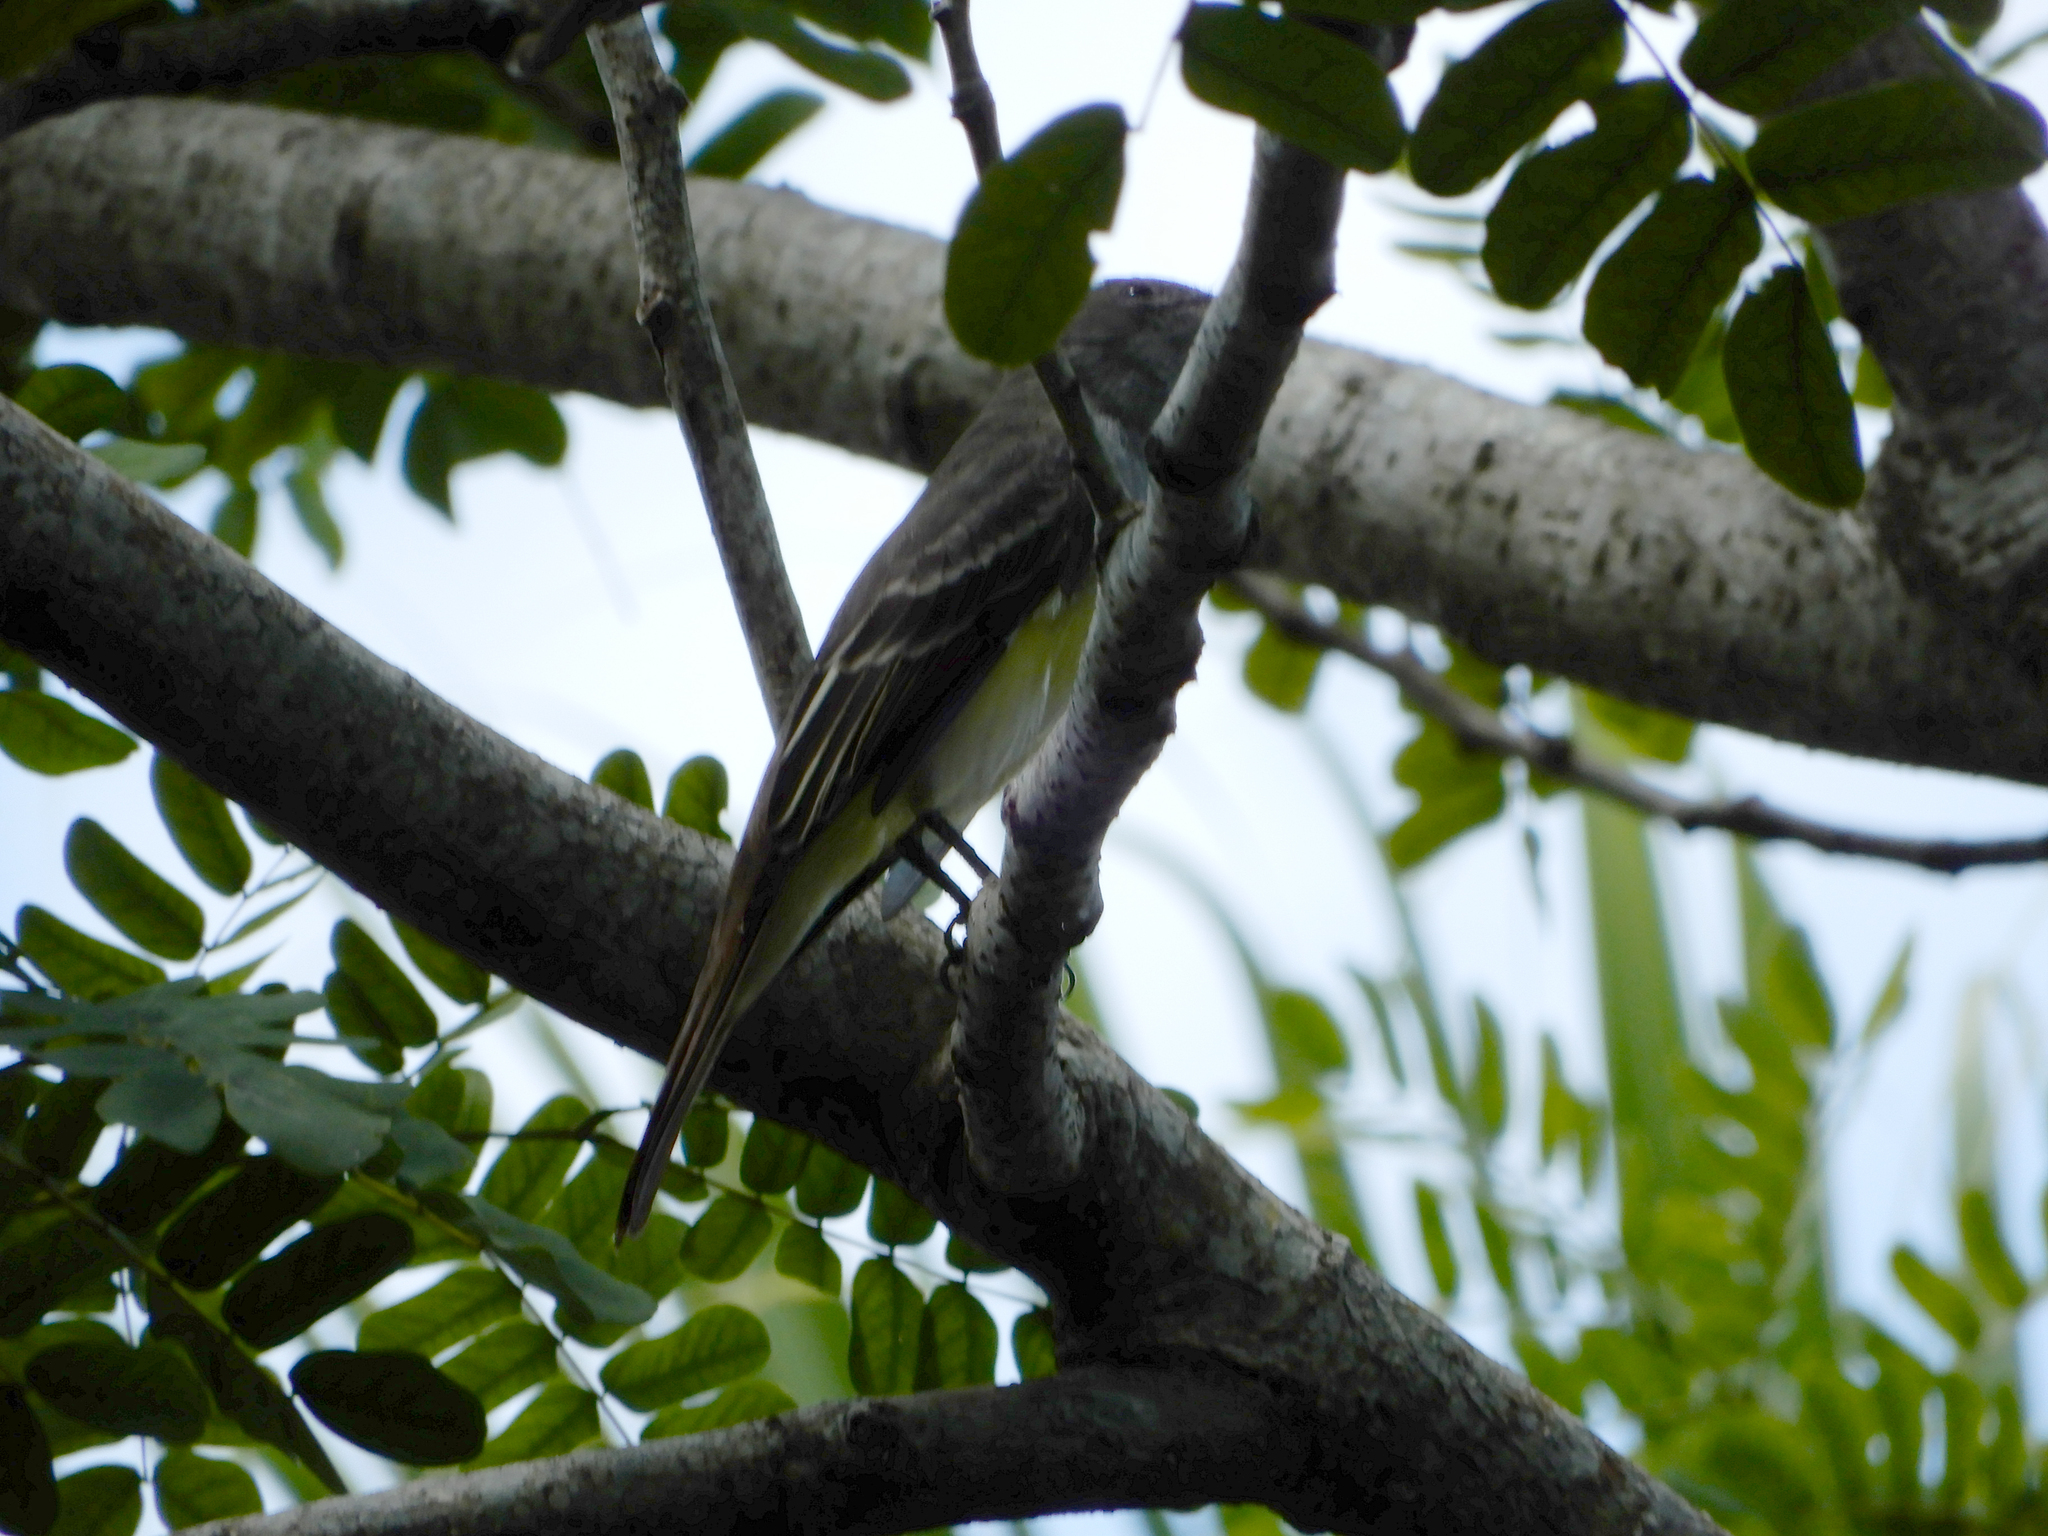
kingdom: Animalia
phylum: Chordata
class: Aves
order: Passeriformes
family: Tyrannidae
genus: Myiarchus
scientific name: Myiarchus crinitus
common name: Great crested flycatcher
